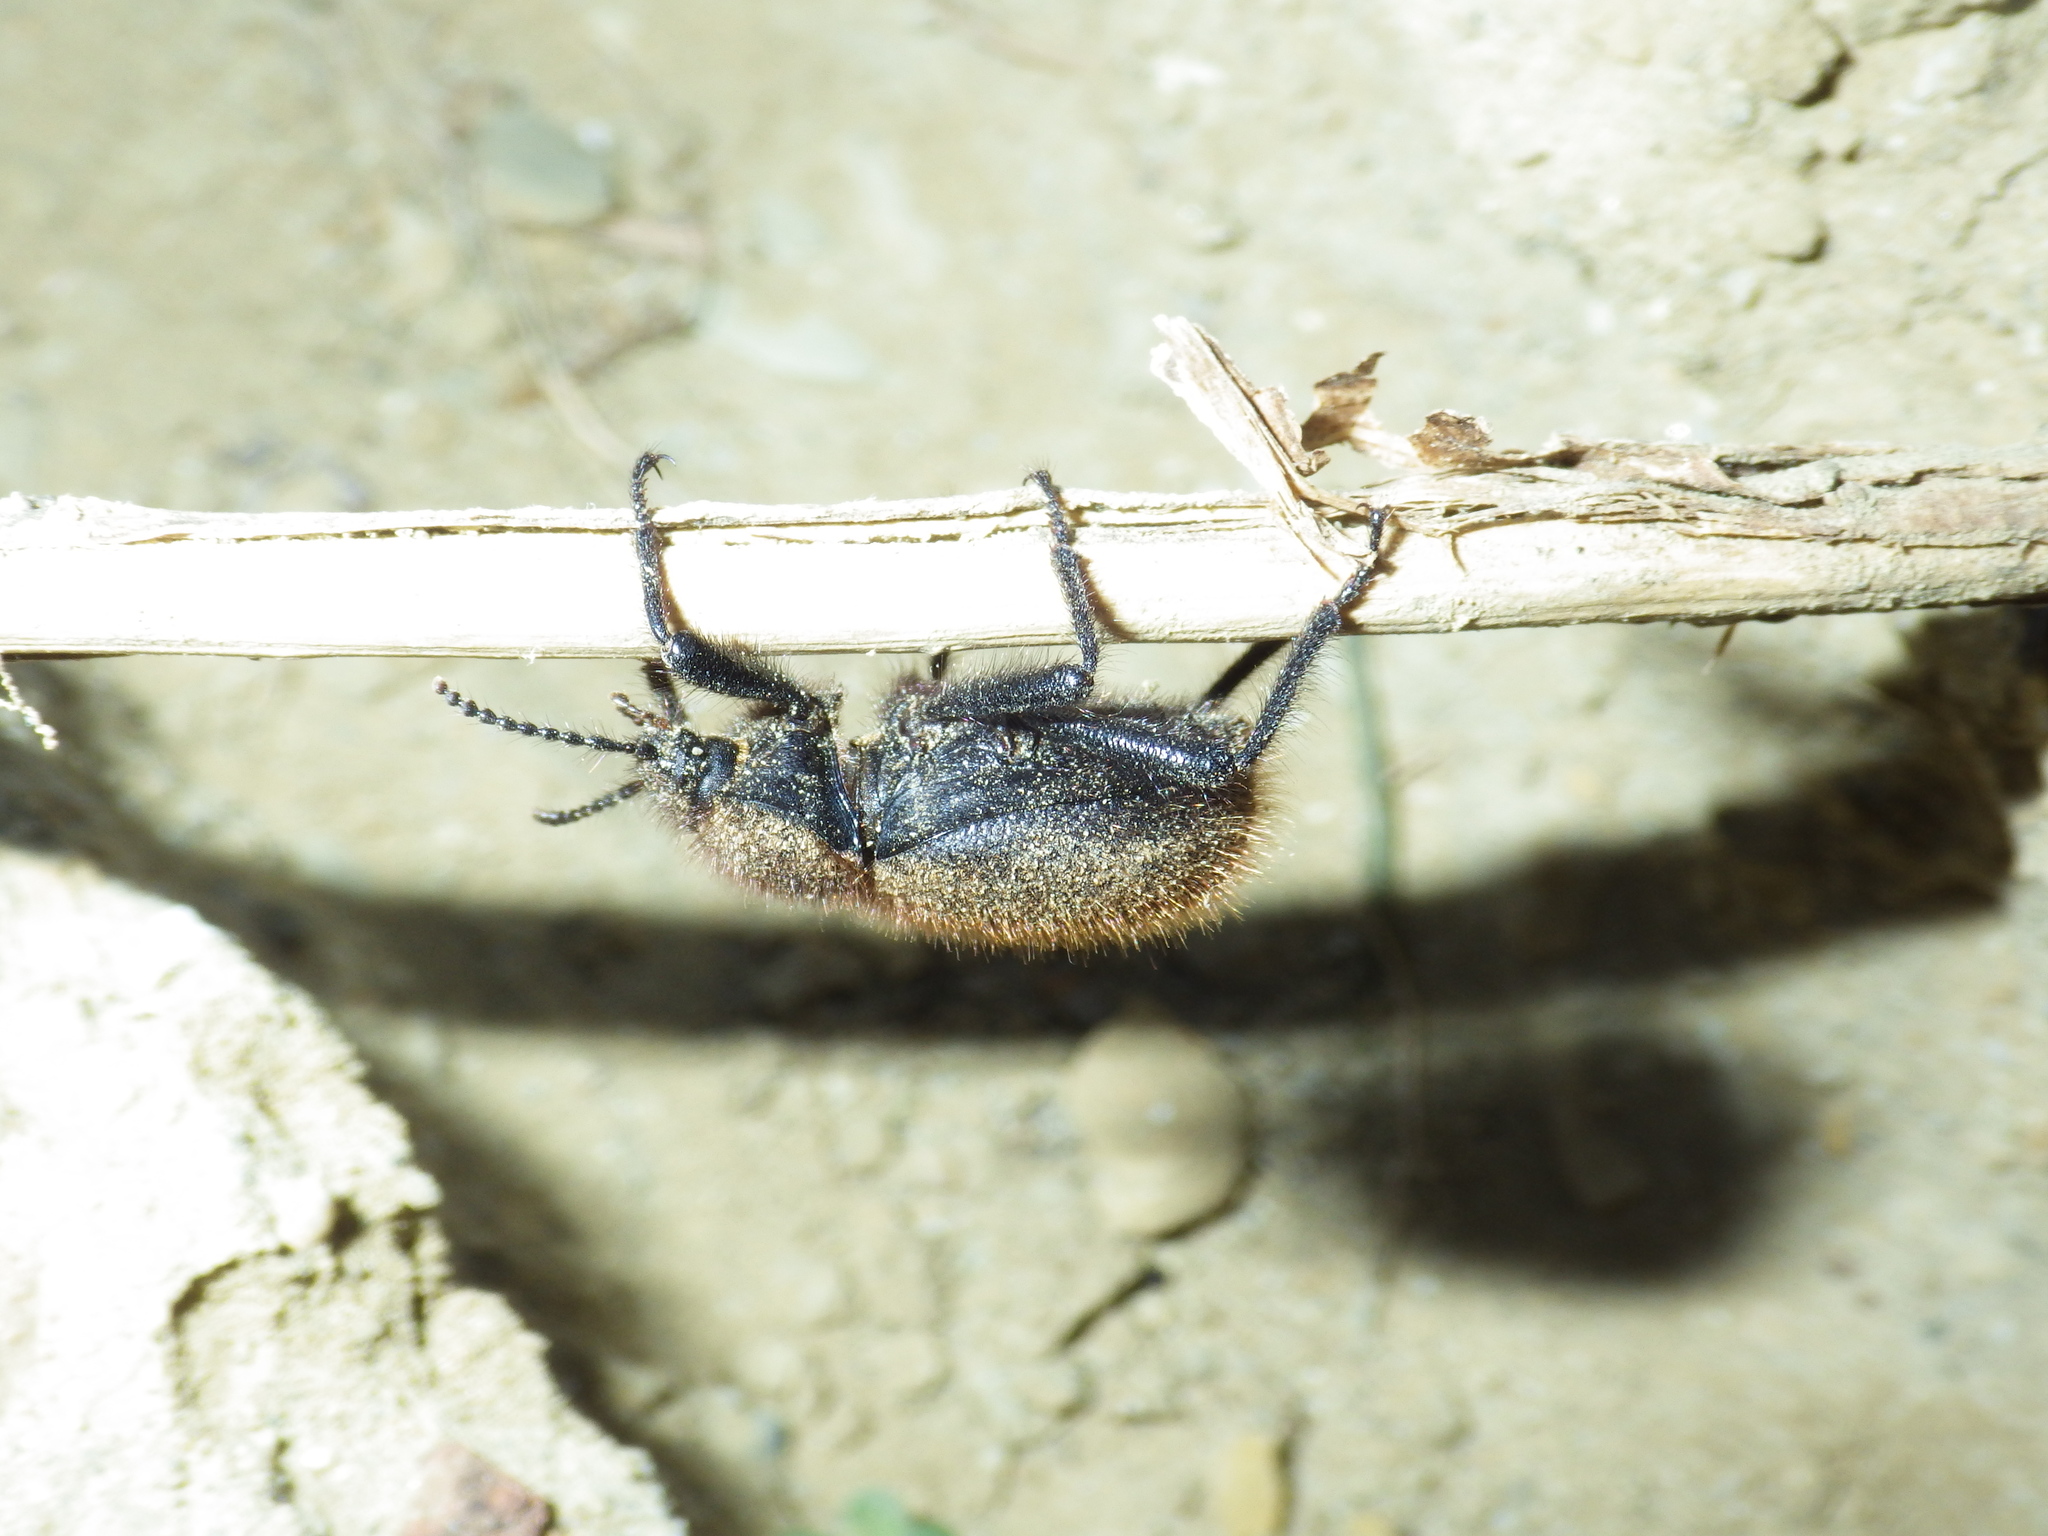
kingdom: Animalia
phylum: Arthropoda
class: Insecta
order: Coleoptera
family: Tenebrionidae
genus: Eleodes
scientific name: Eleodes osculans
